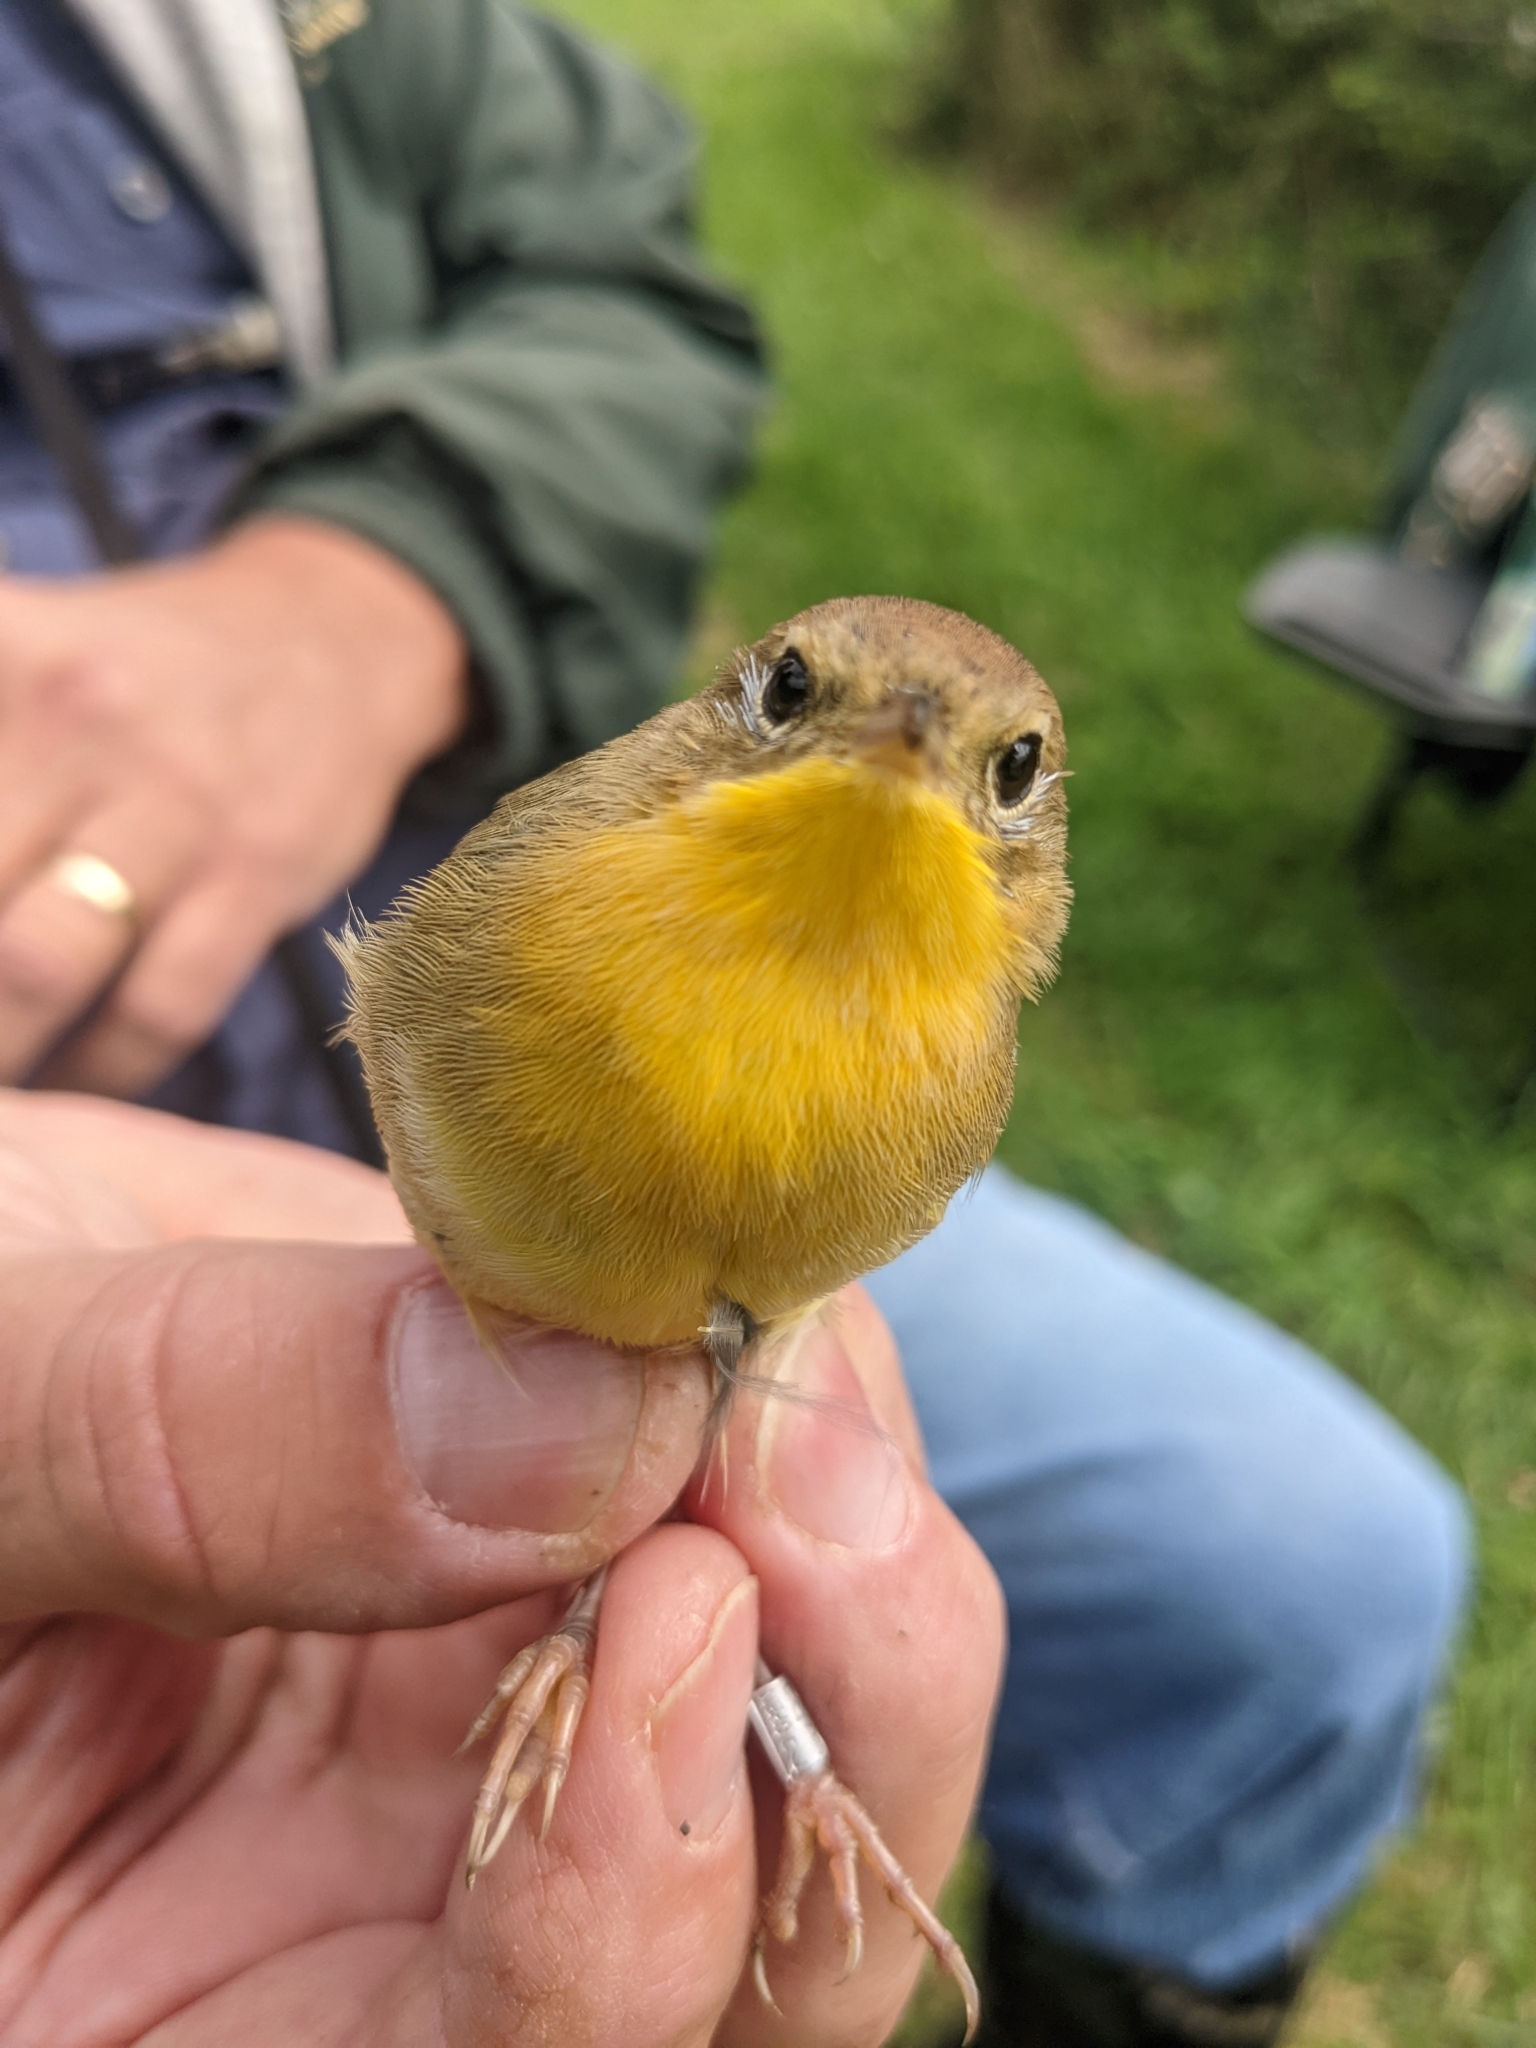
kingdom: Animalia
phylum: Chordata
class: Aves
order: Passeriformes
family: Parulidae
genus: Geothlypis
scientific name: Geothlypis trichas
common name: Common yellowthroat
